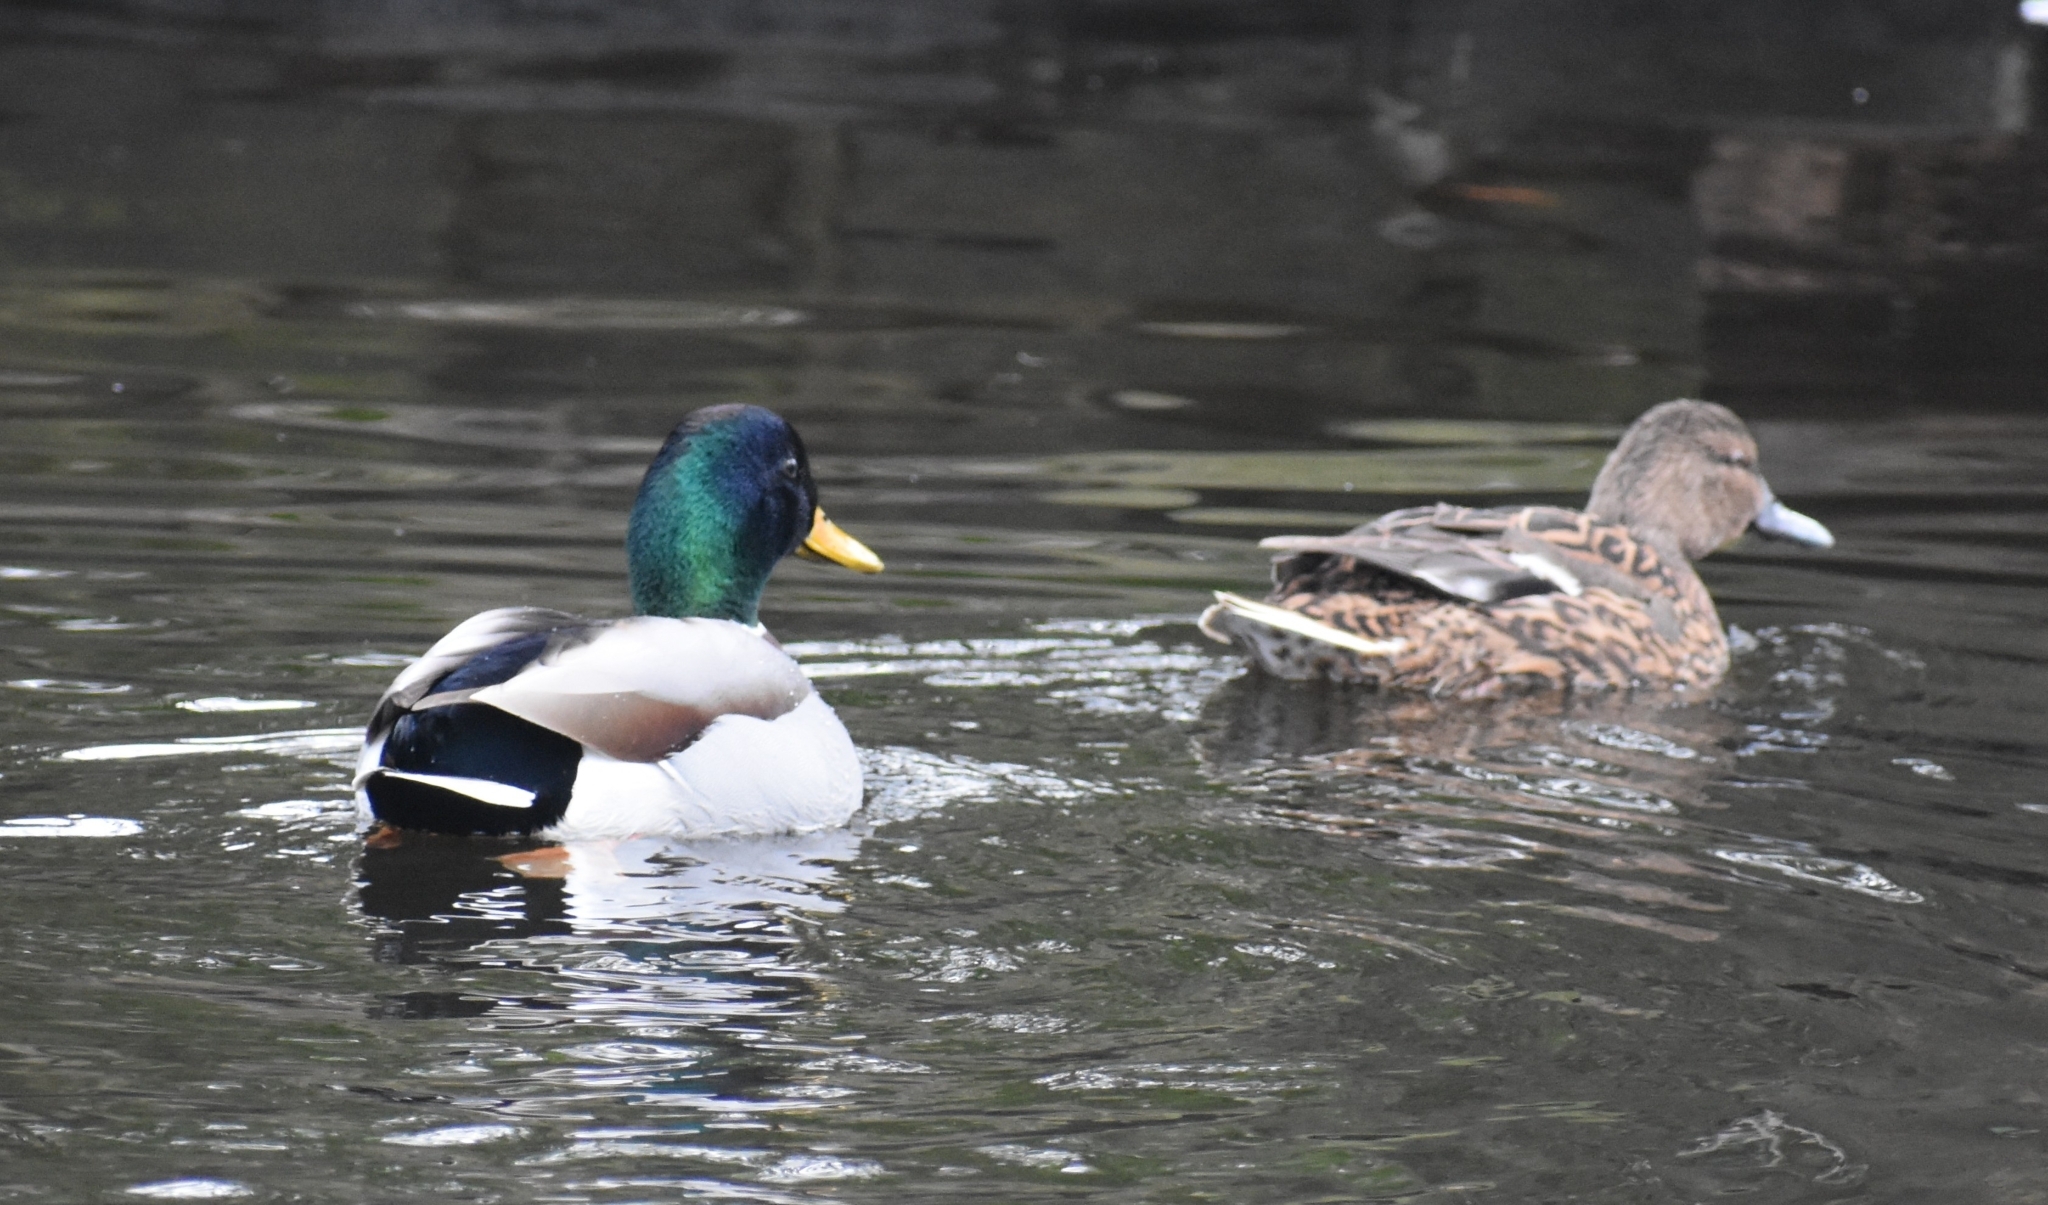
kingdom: Animalia
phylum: Chordata
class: Aves
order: Anseriformes
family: Anatidae
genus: Anas
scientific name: Anas platyrhynchos
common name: Mallard
